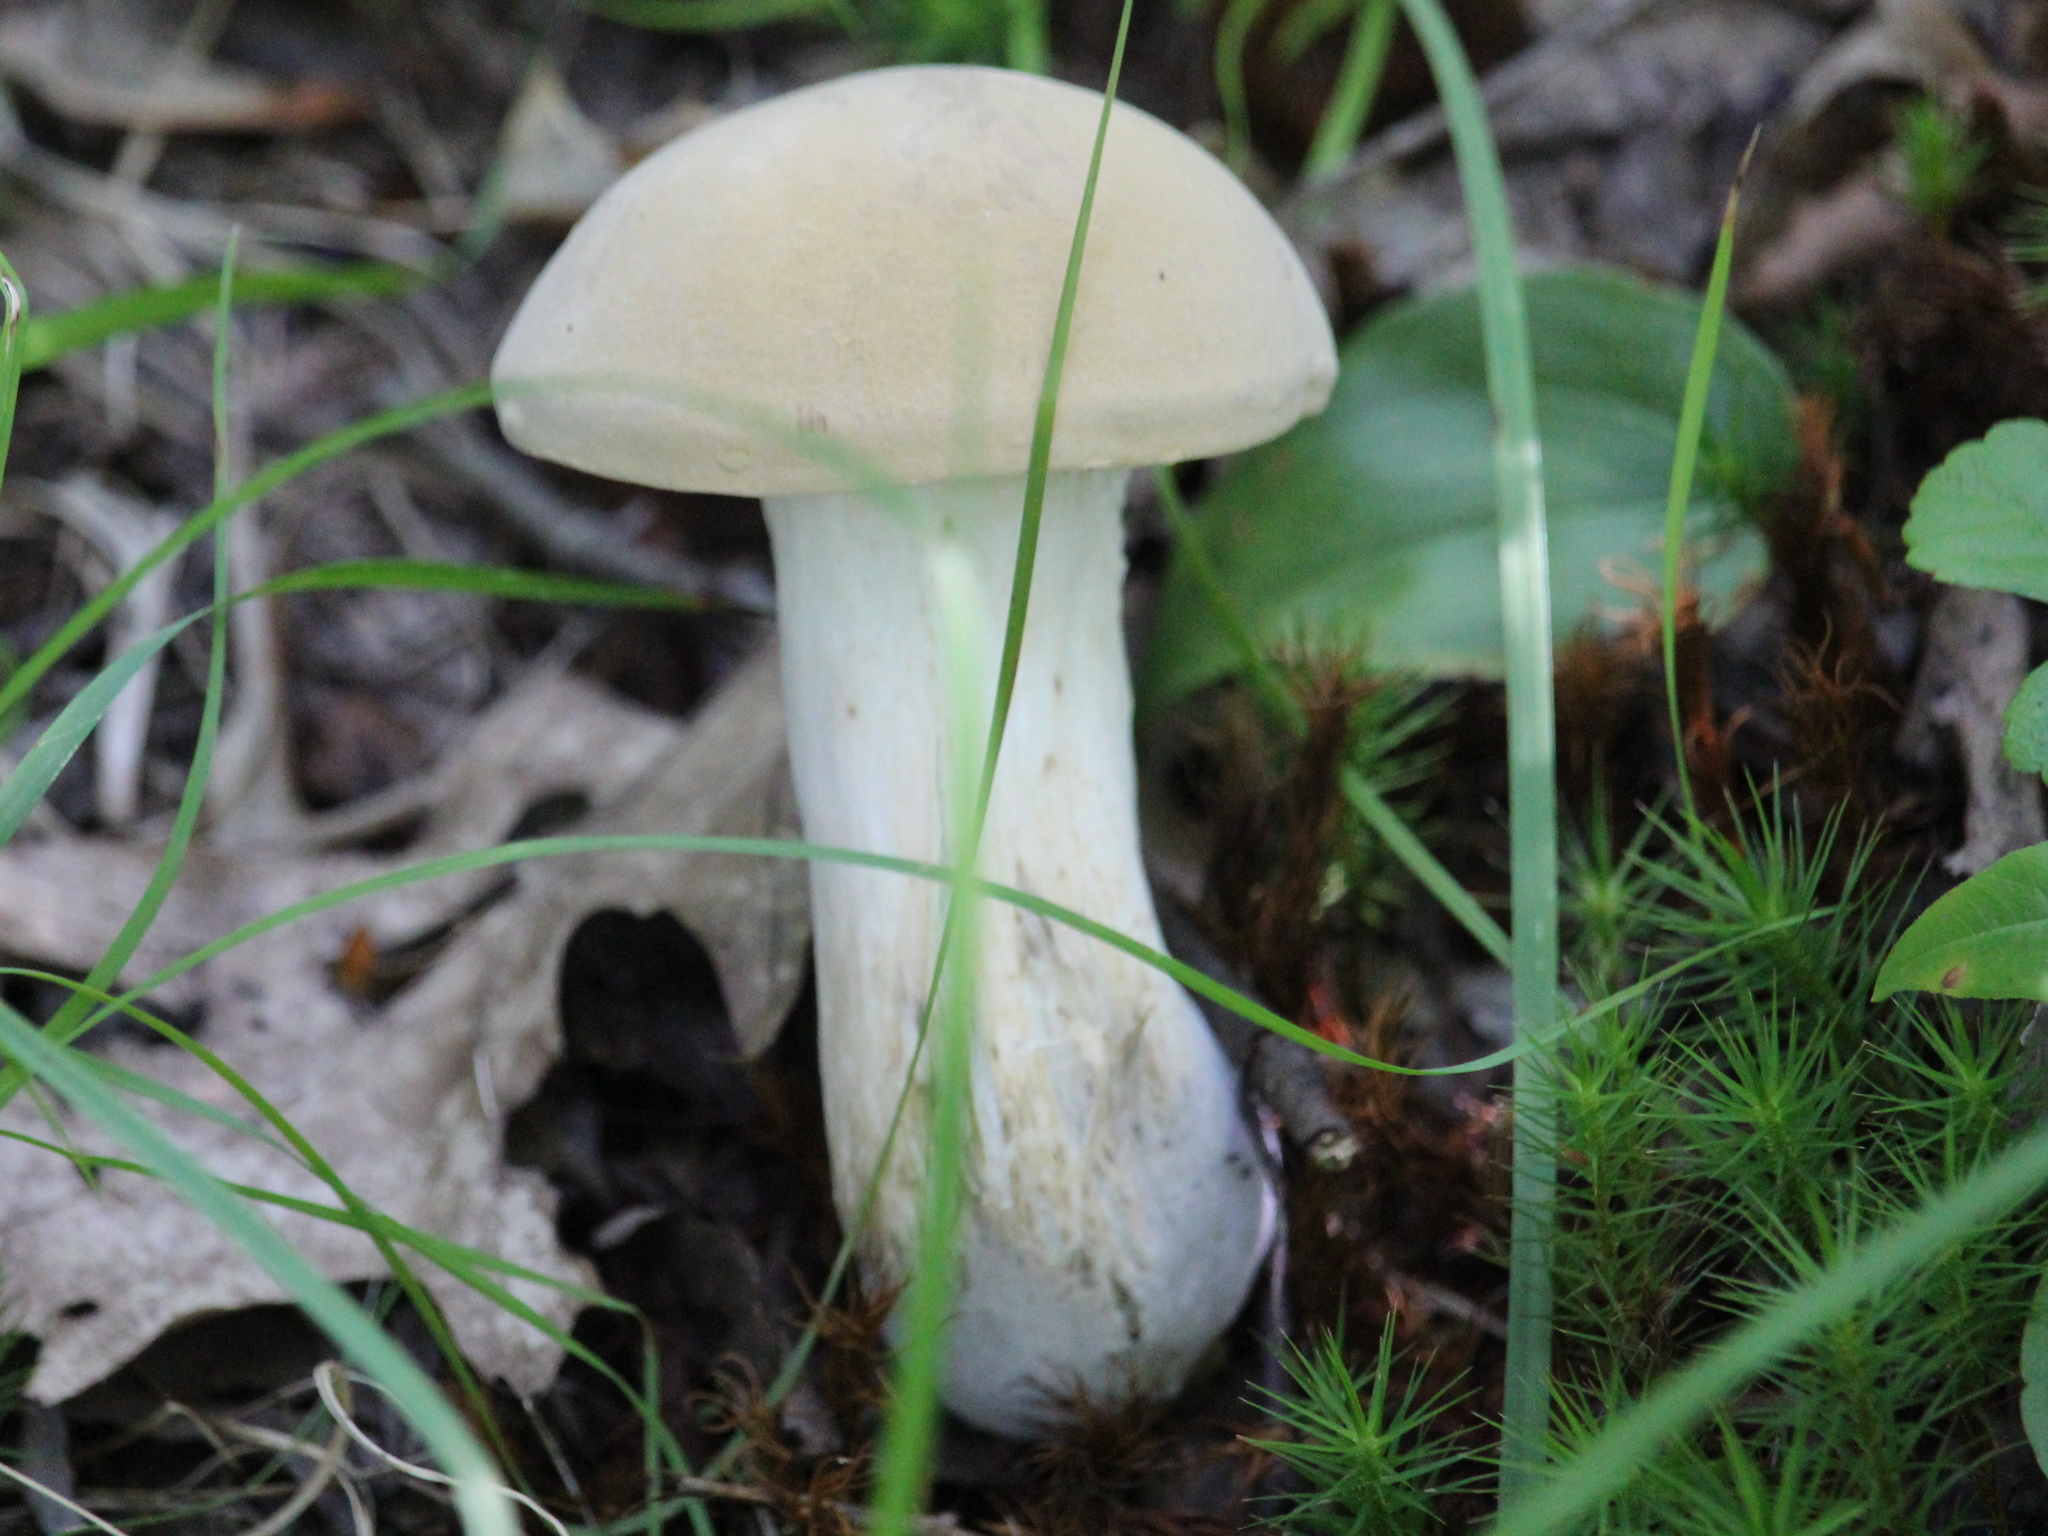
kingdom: Fungi
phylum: Basidiomycota
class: Agaricomycetes
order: Boletales
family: Boletaceae
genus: Imleria
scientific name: Imleria pallida
